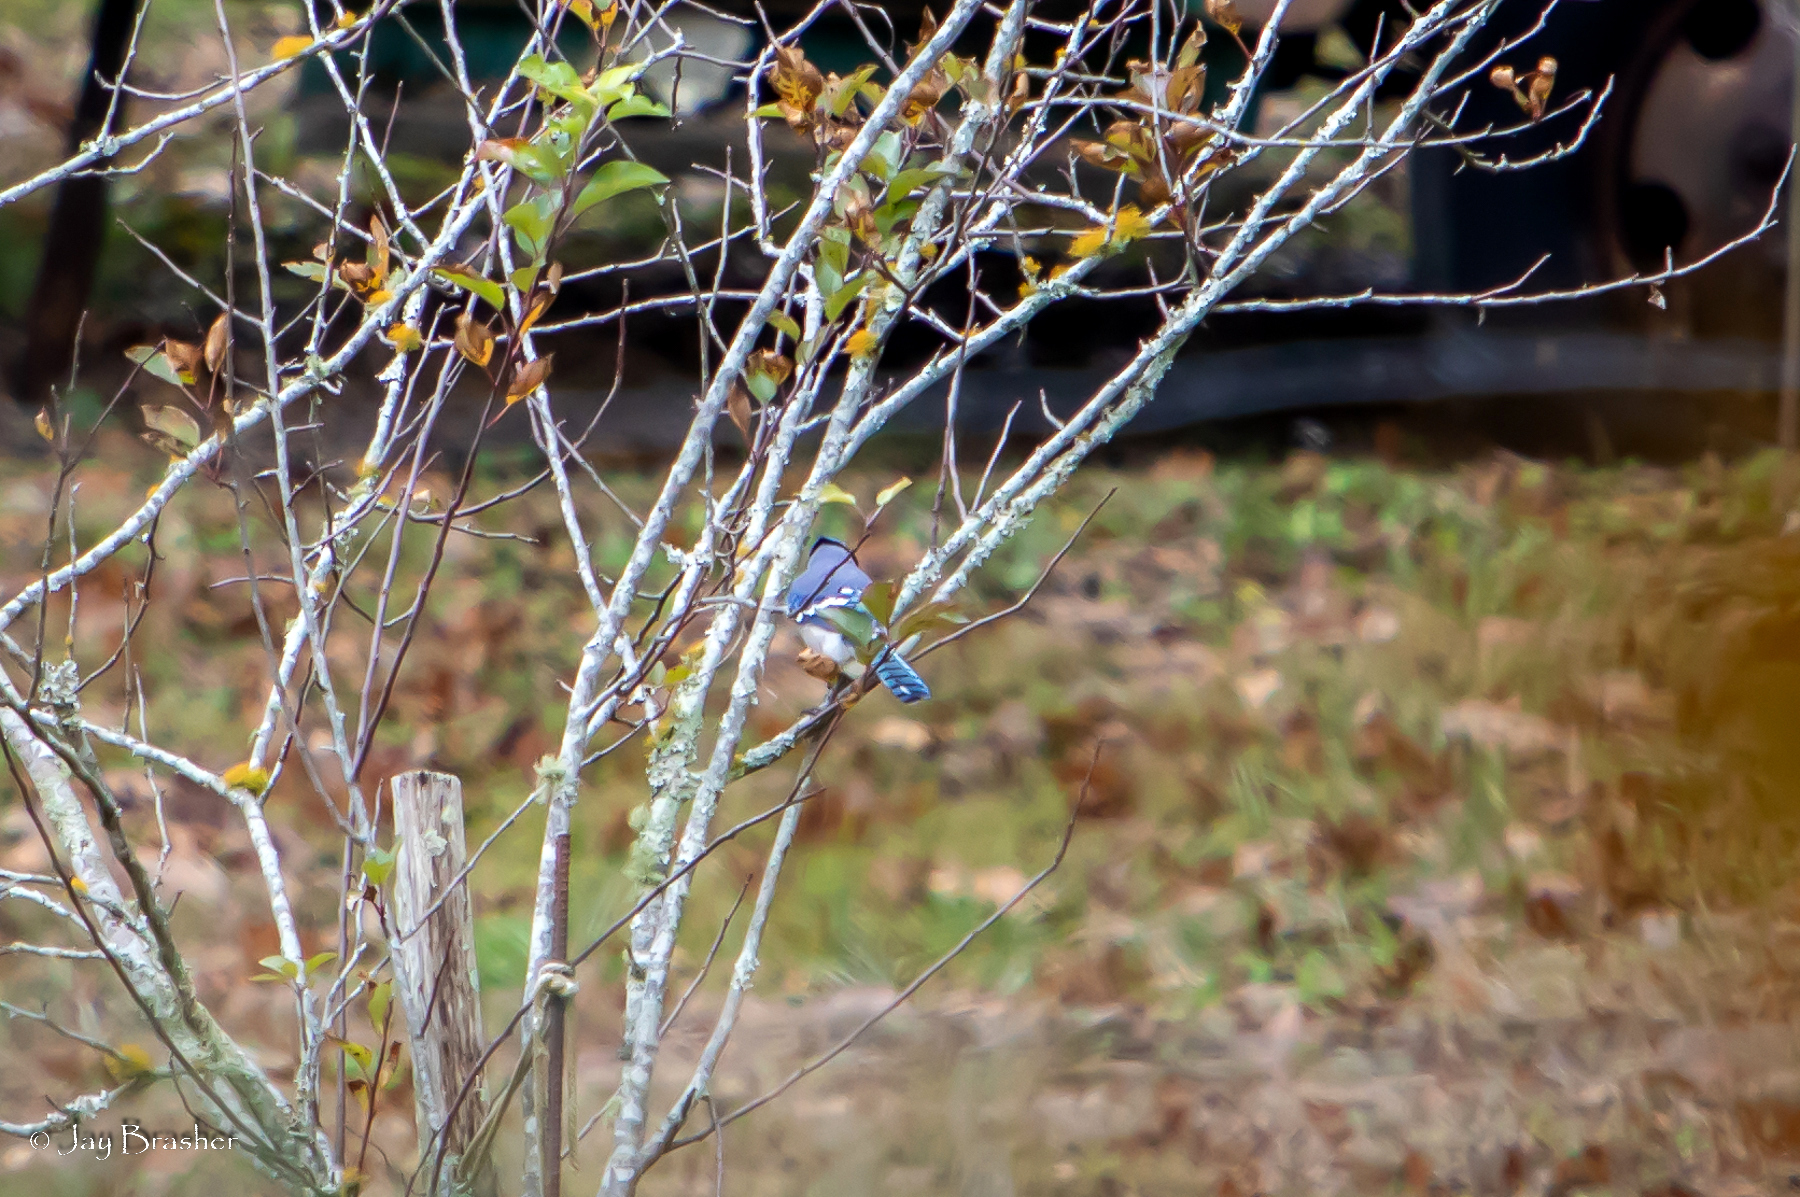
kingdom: Animalia
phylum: Chordata
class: Aves
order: Passeriformes
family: Corvidae
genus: Cyanocitta
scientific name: Cyanocitta cristata
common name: Blue jay
